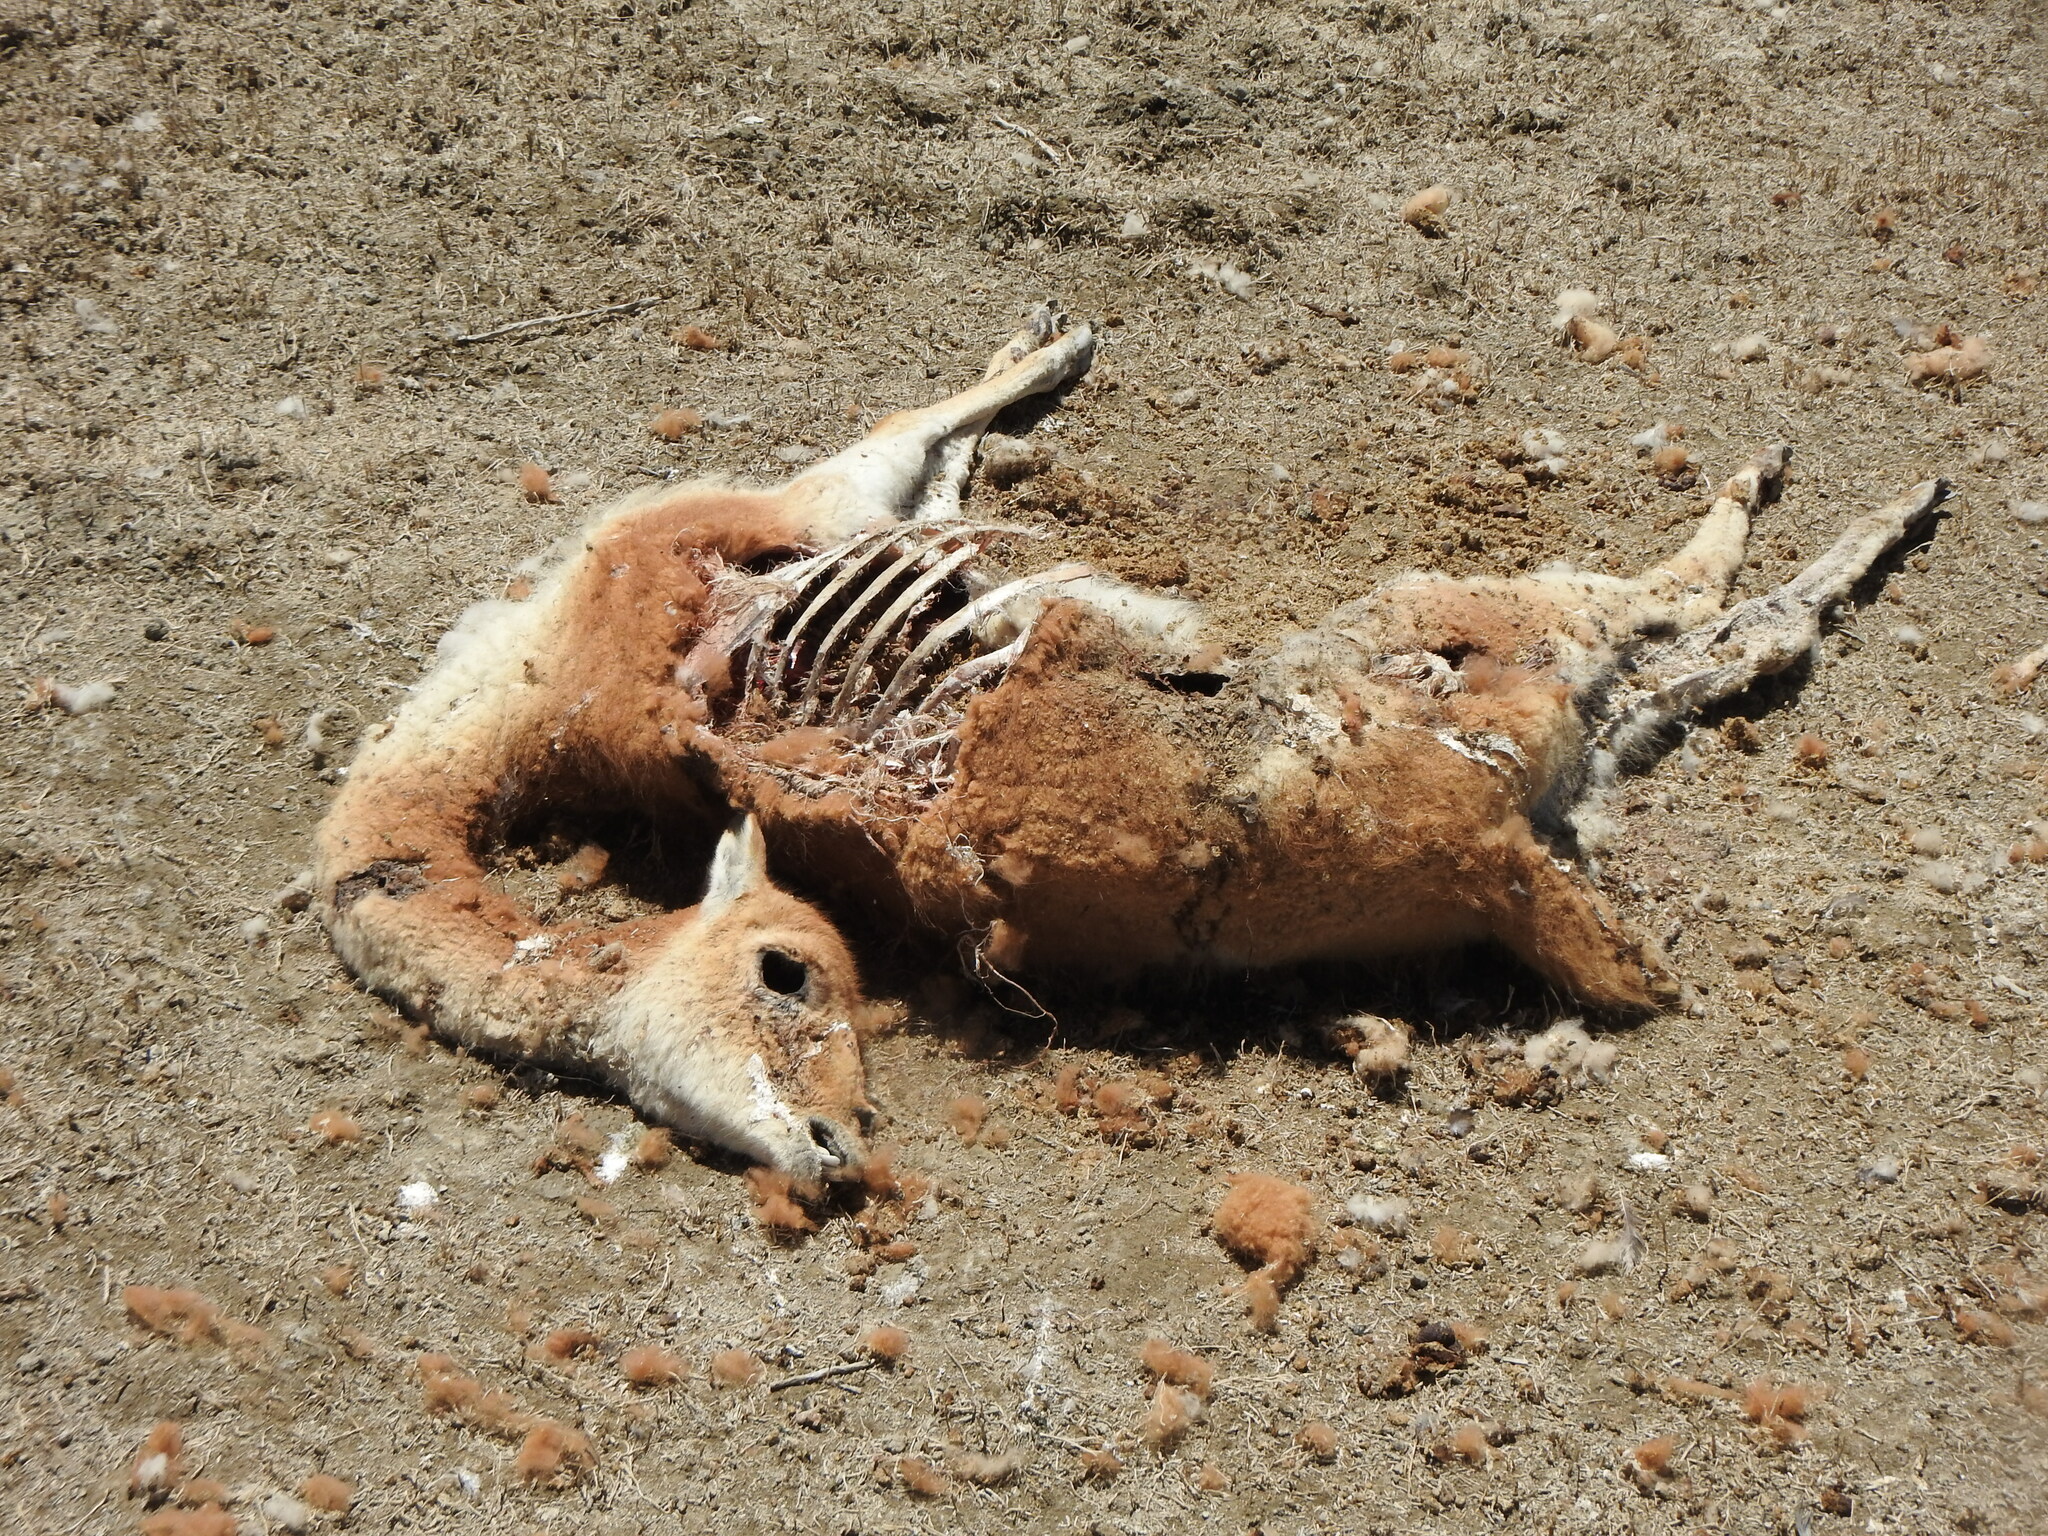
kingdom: Animalia
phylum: Chordata
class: Mammalia
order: Artiodactyla
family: Camelidae
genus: Vicugna
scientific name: Vicugna vicugna
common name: Vicugna
